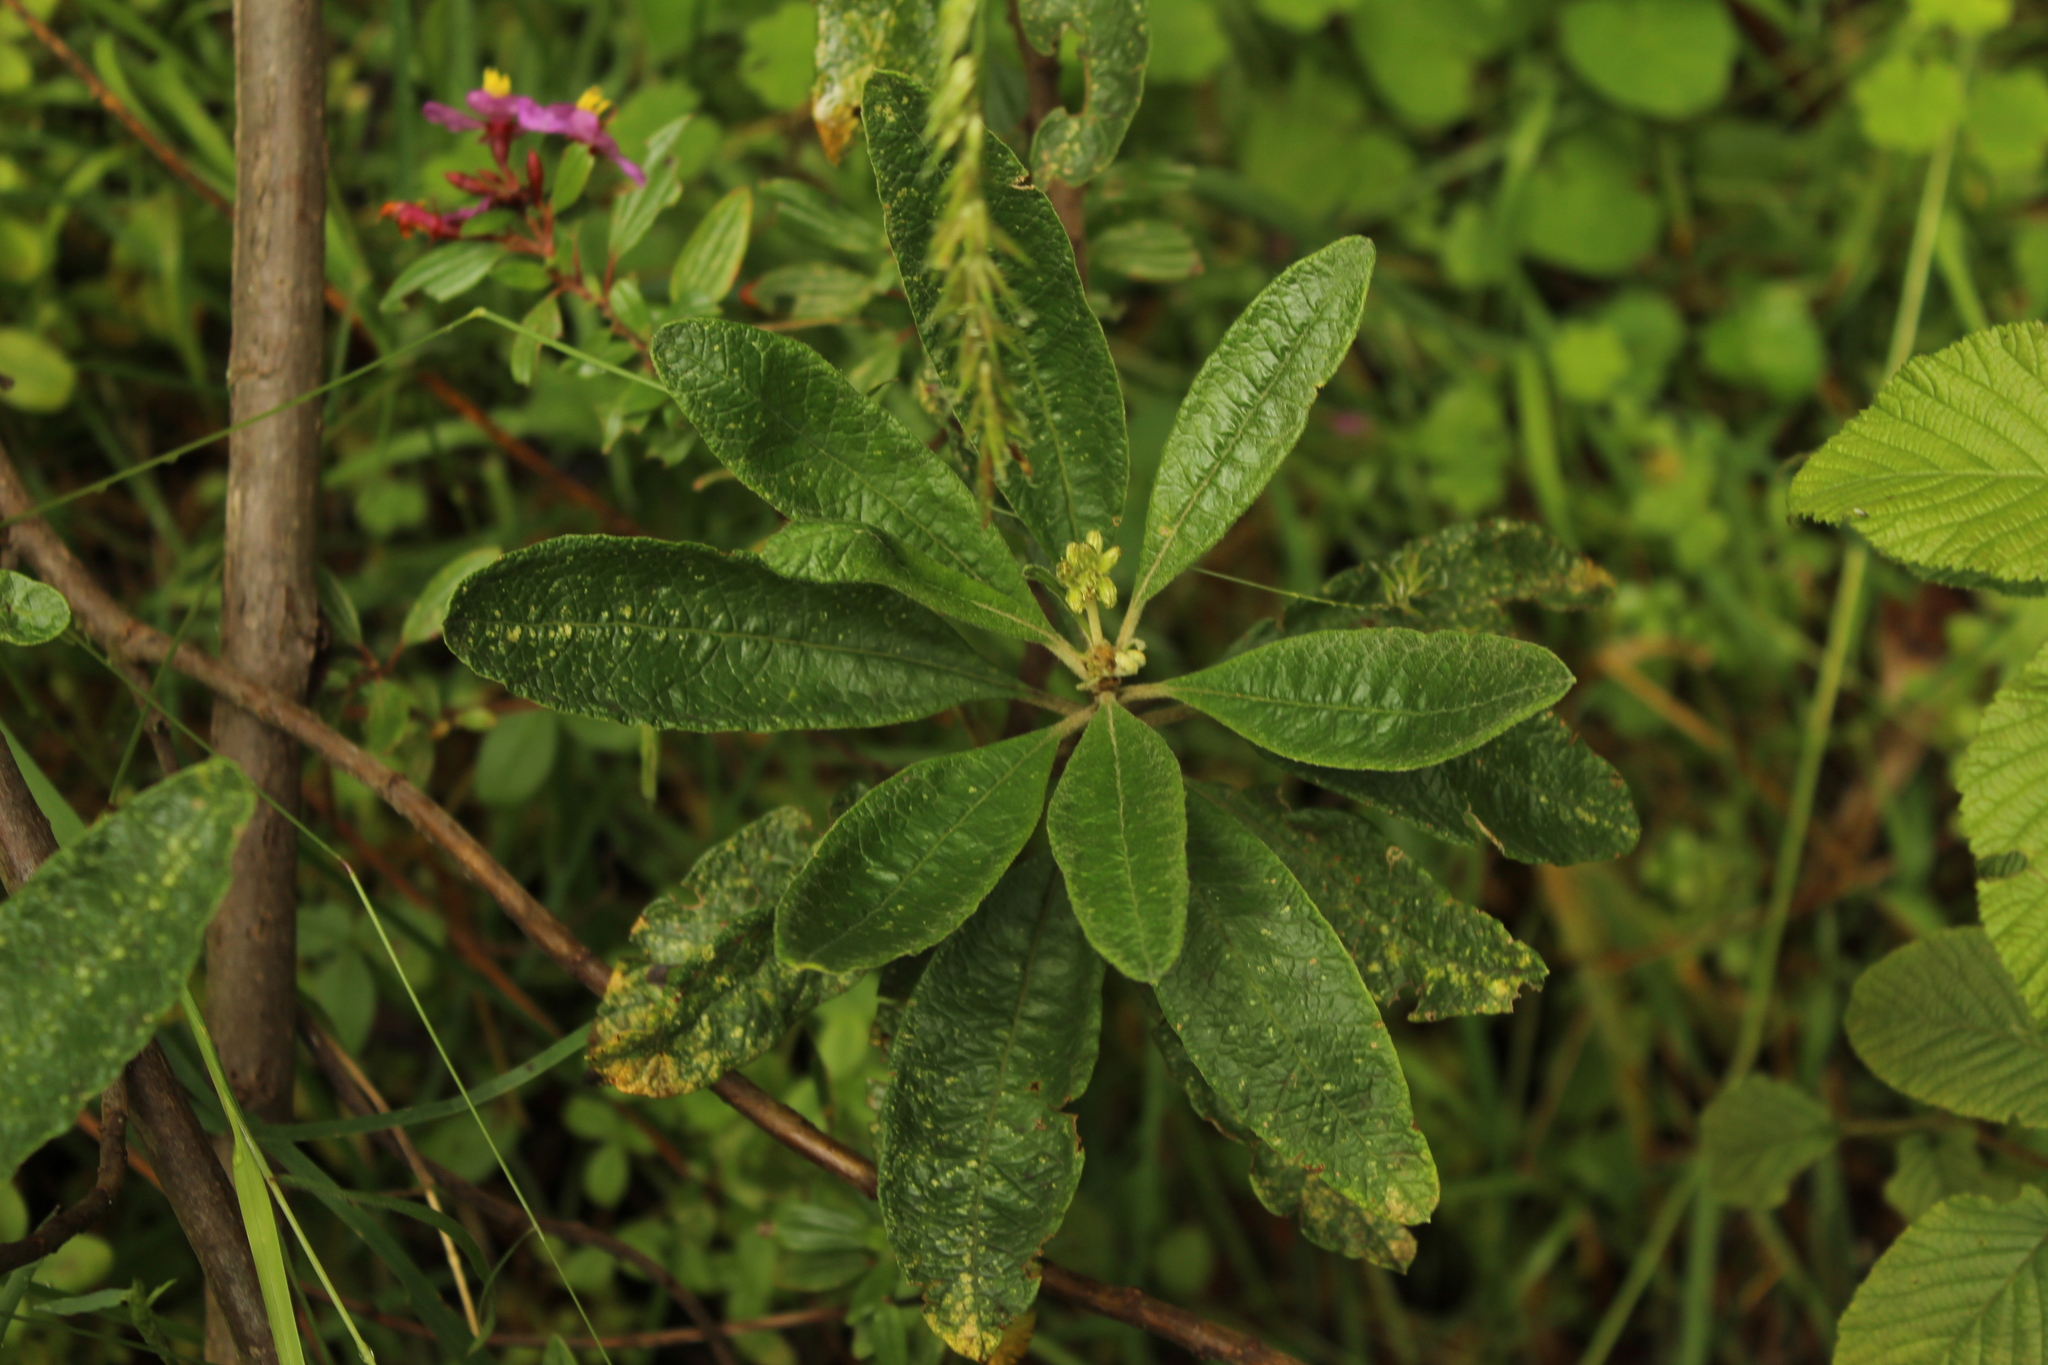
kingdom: Plantae
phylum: Tracheophyta
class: Magnoliopsida
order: Asterales
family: Asteraceae
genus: Linochilus
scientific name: Linochilus tenuifolius
